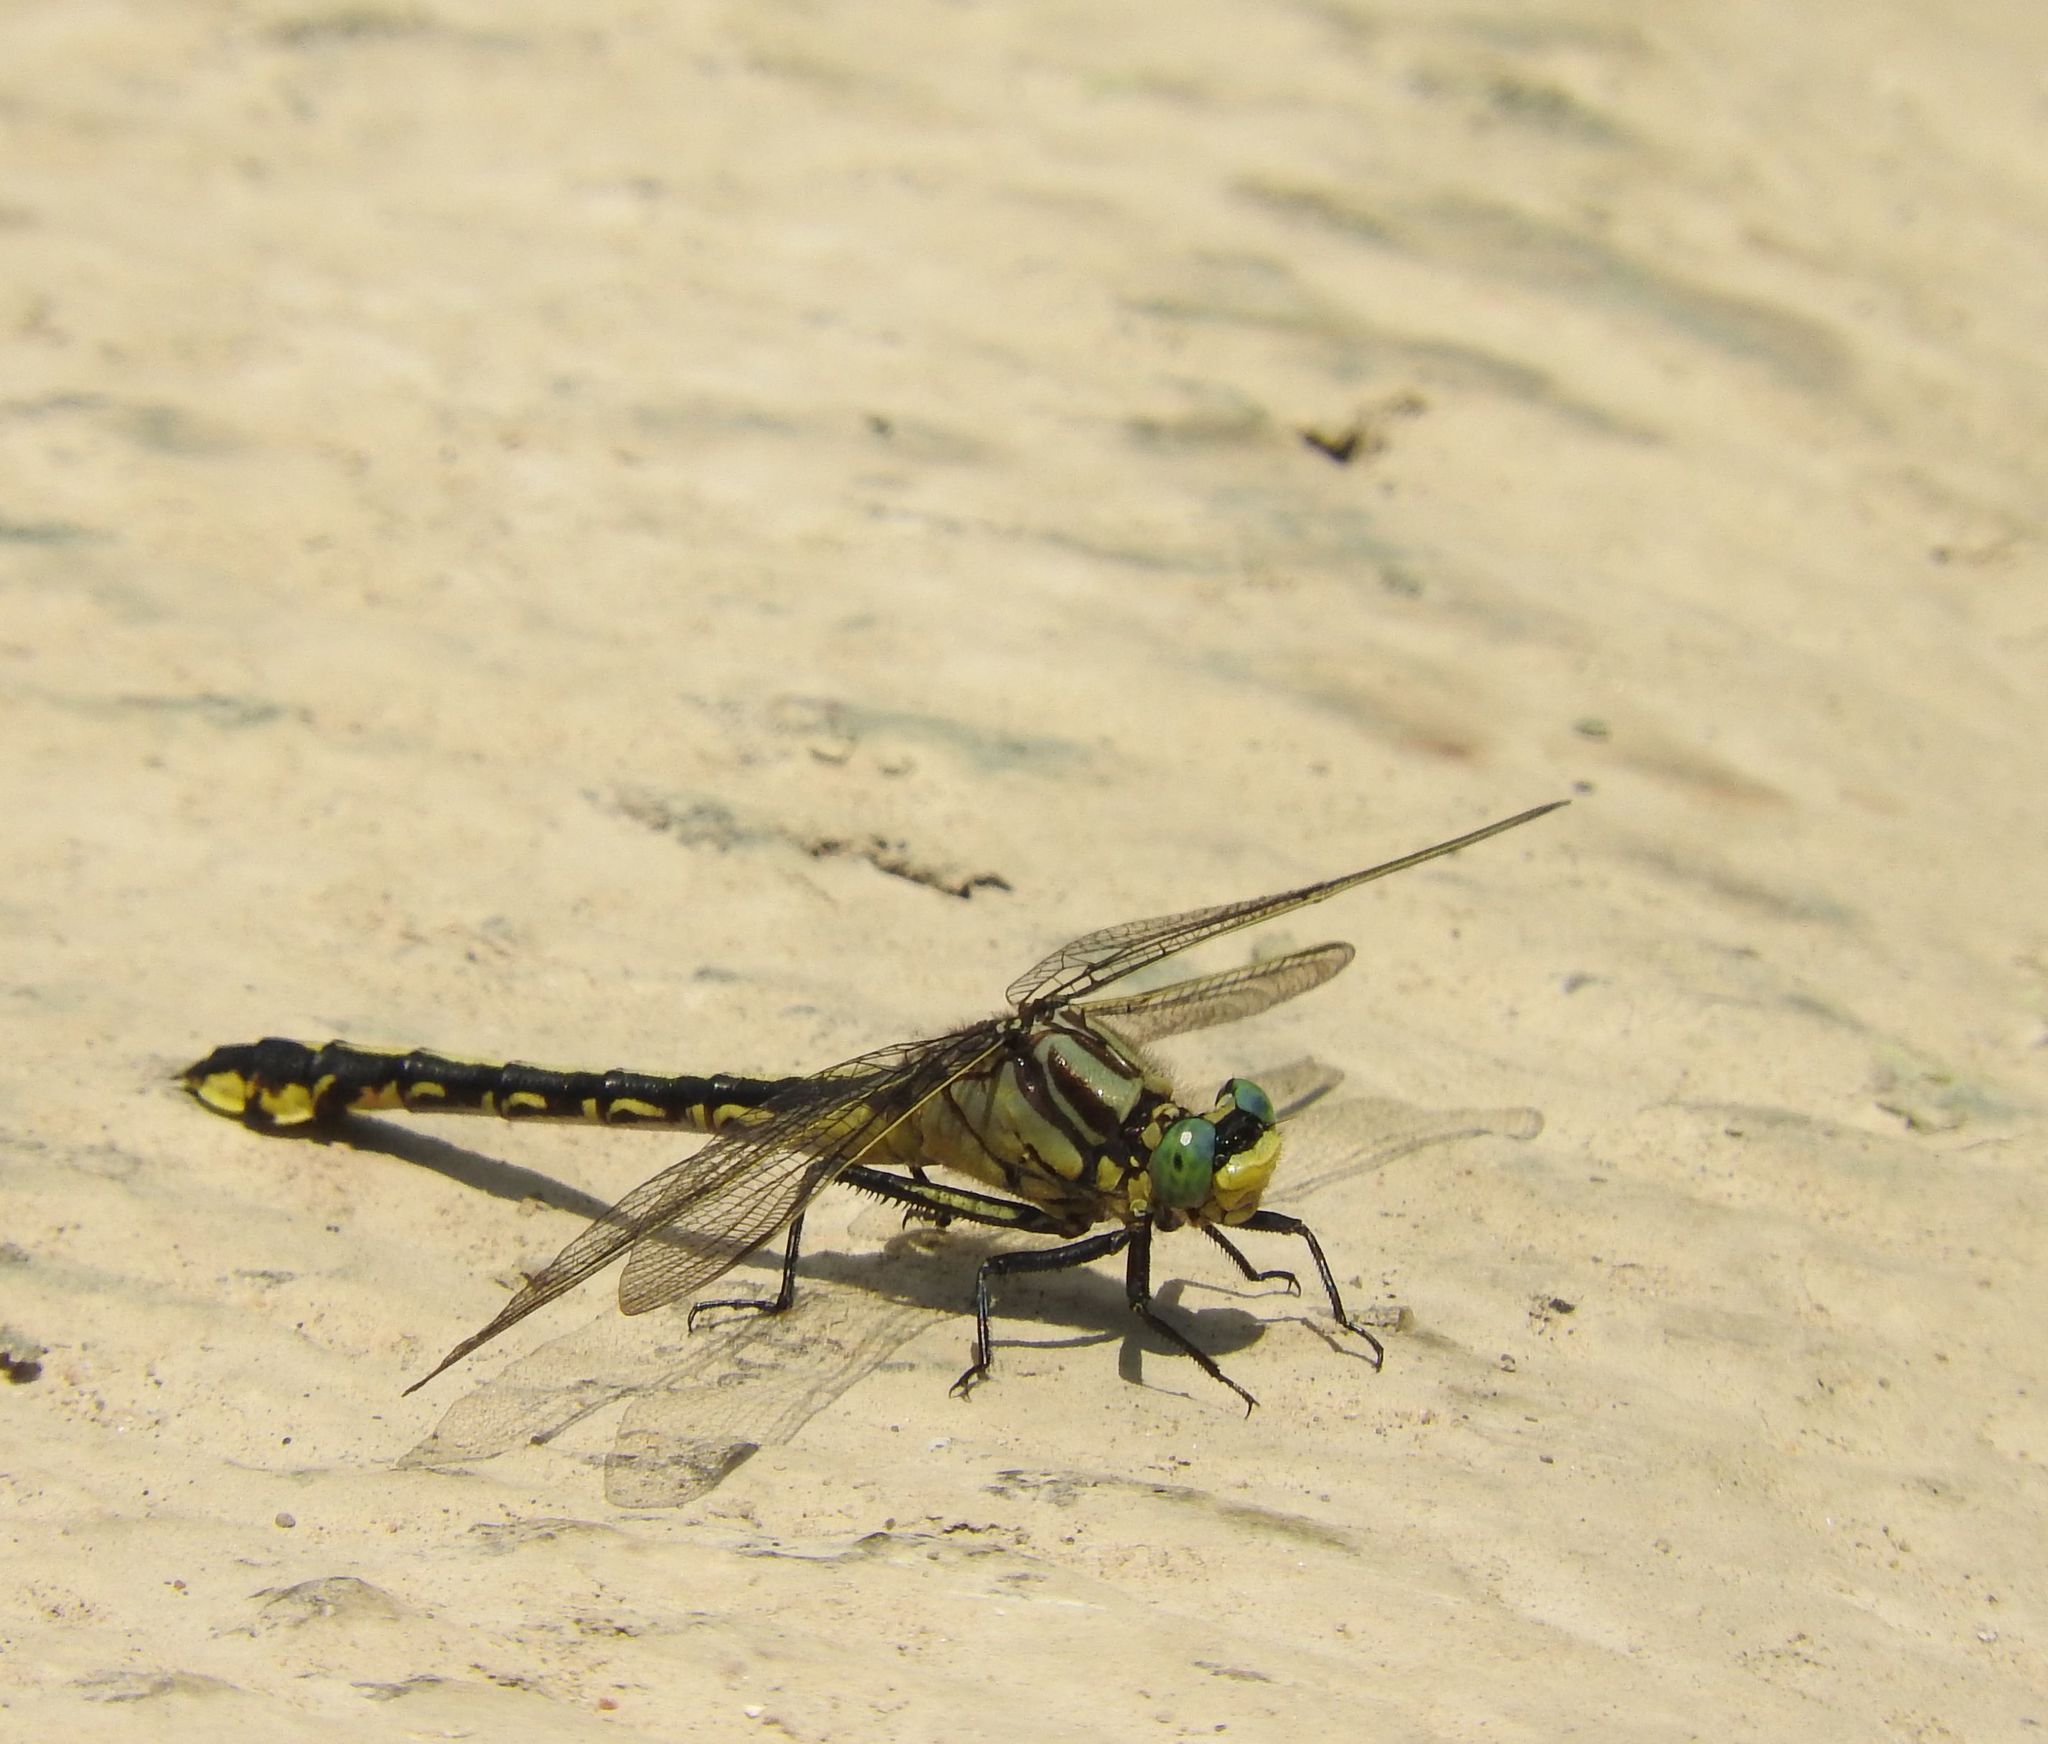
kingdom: Animalia
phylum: Arthropoda
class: Insecta
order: Odonata
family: Gomphidae
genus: Gomphurus
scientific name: Gomphurus fraternus
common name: Midland clubtail
